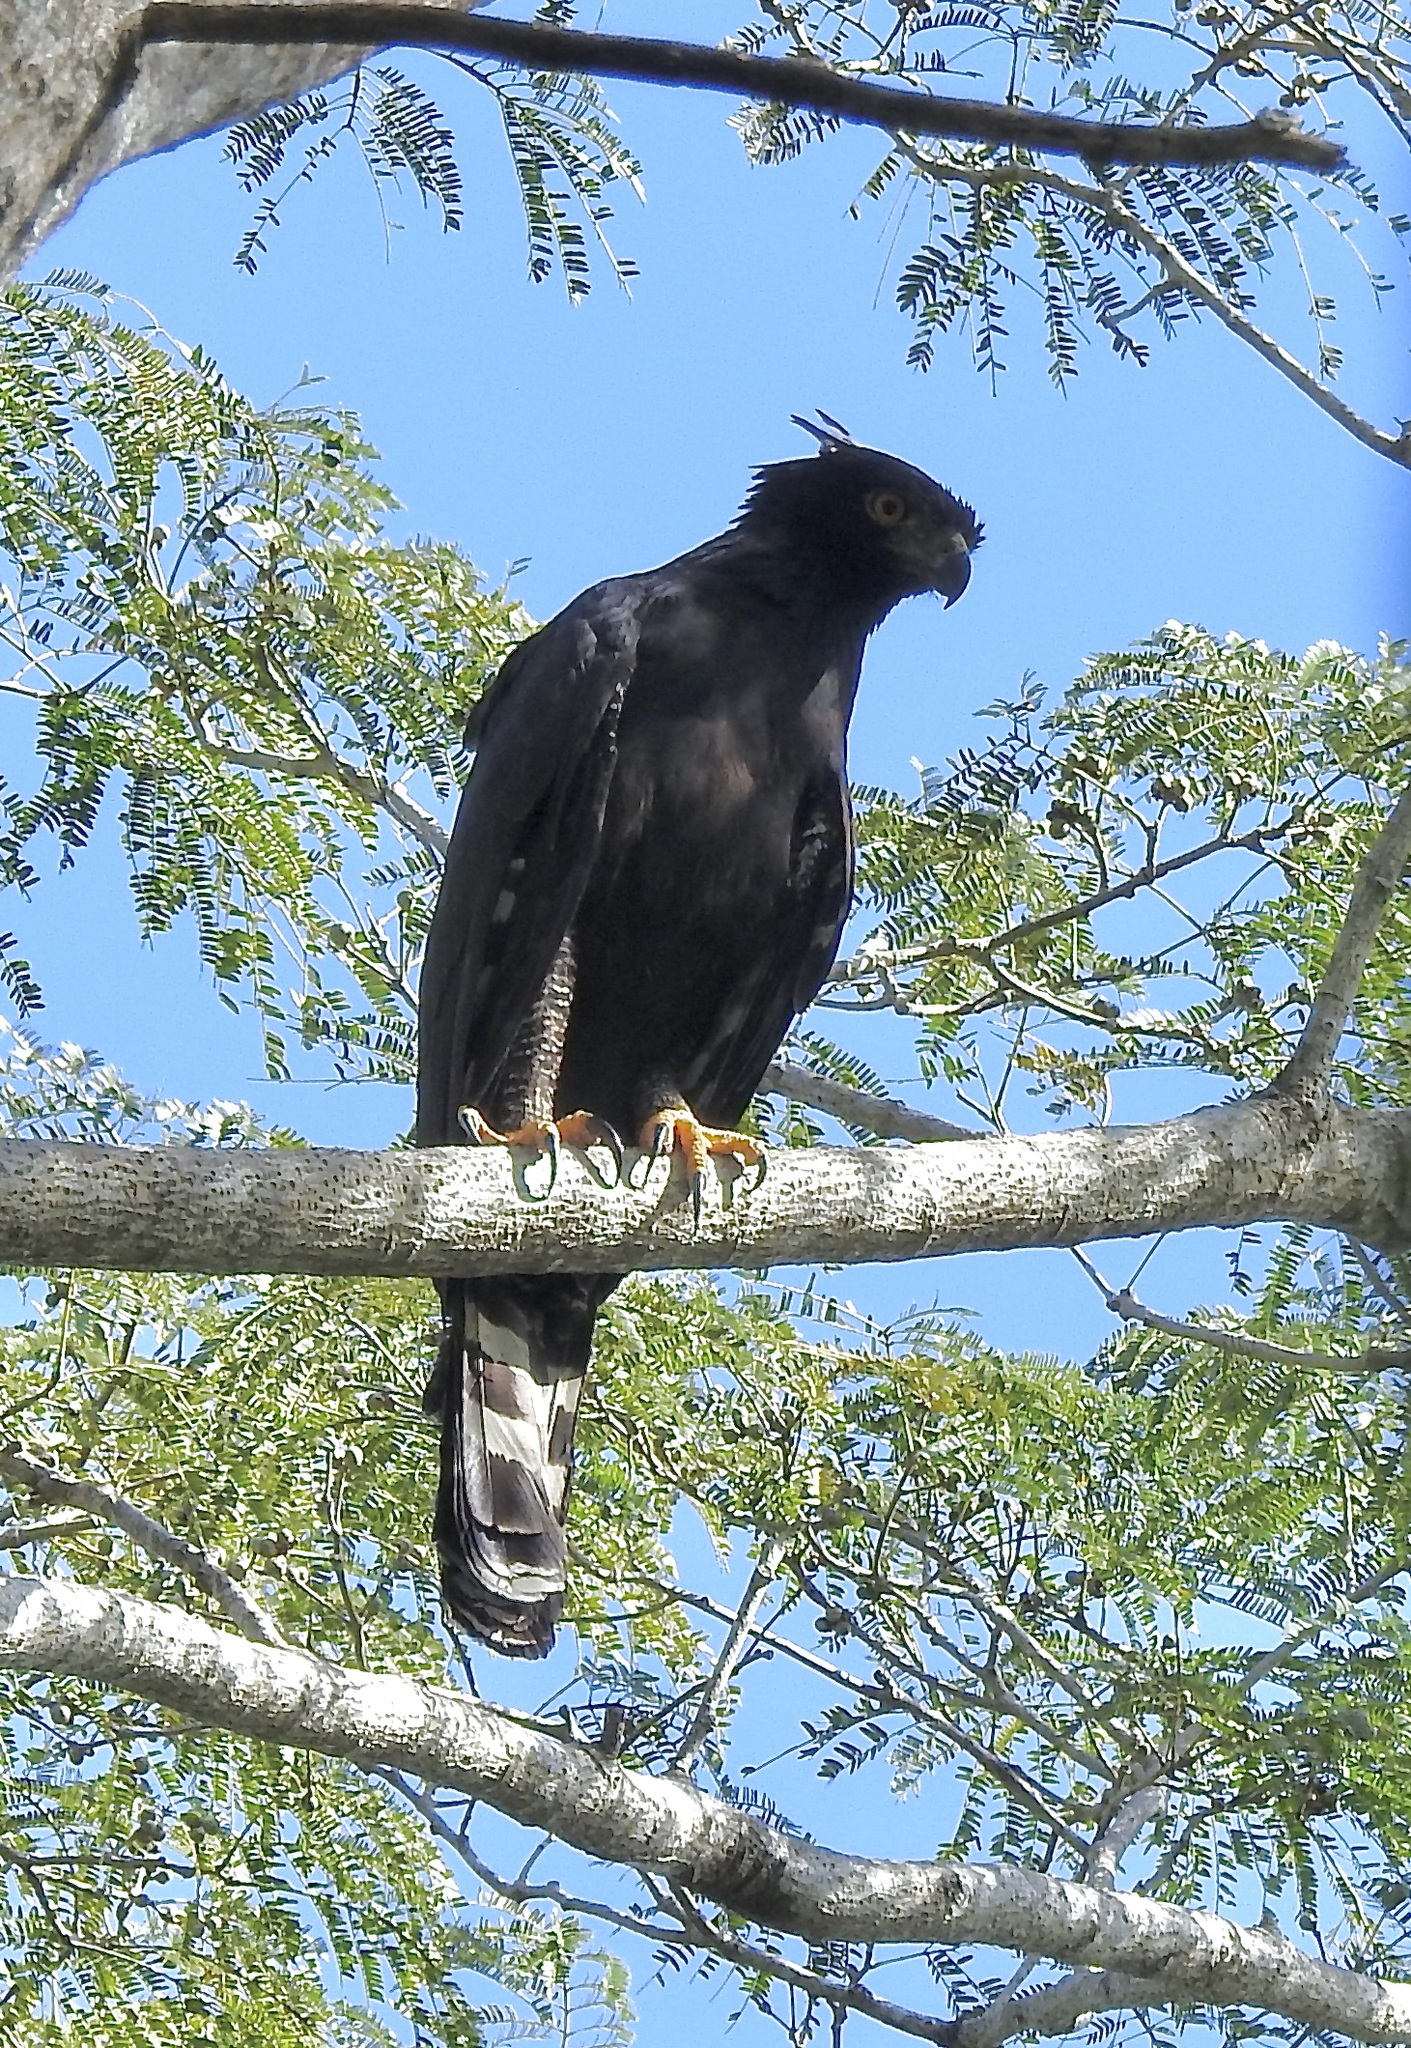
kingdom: Animalia
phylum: Chordata
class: Aves
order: Accipitriformes
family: Accipitridae
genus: Spizaetus
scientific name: Spizaetus tyrannus
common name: Black hawk-eagle
